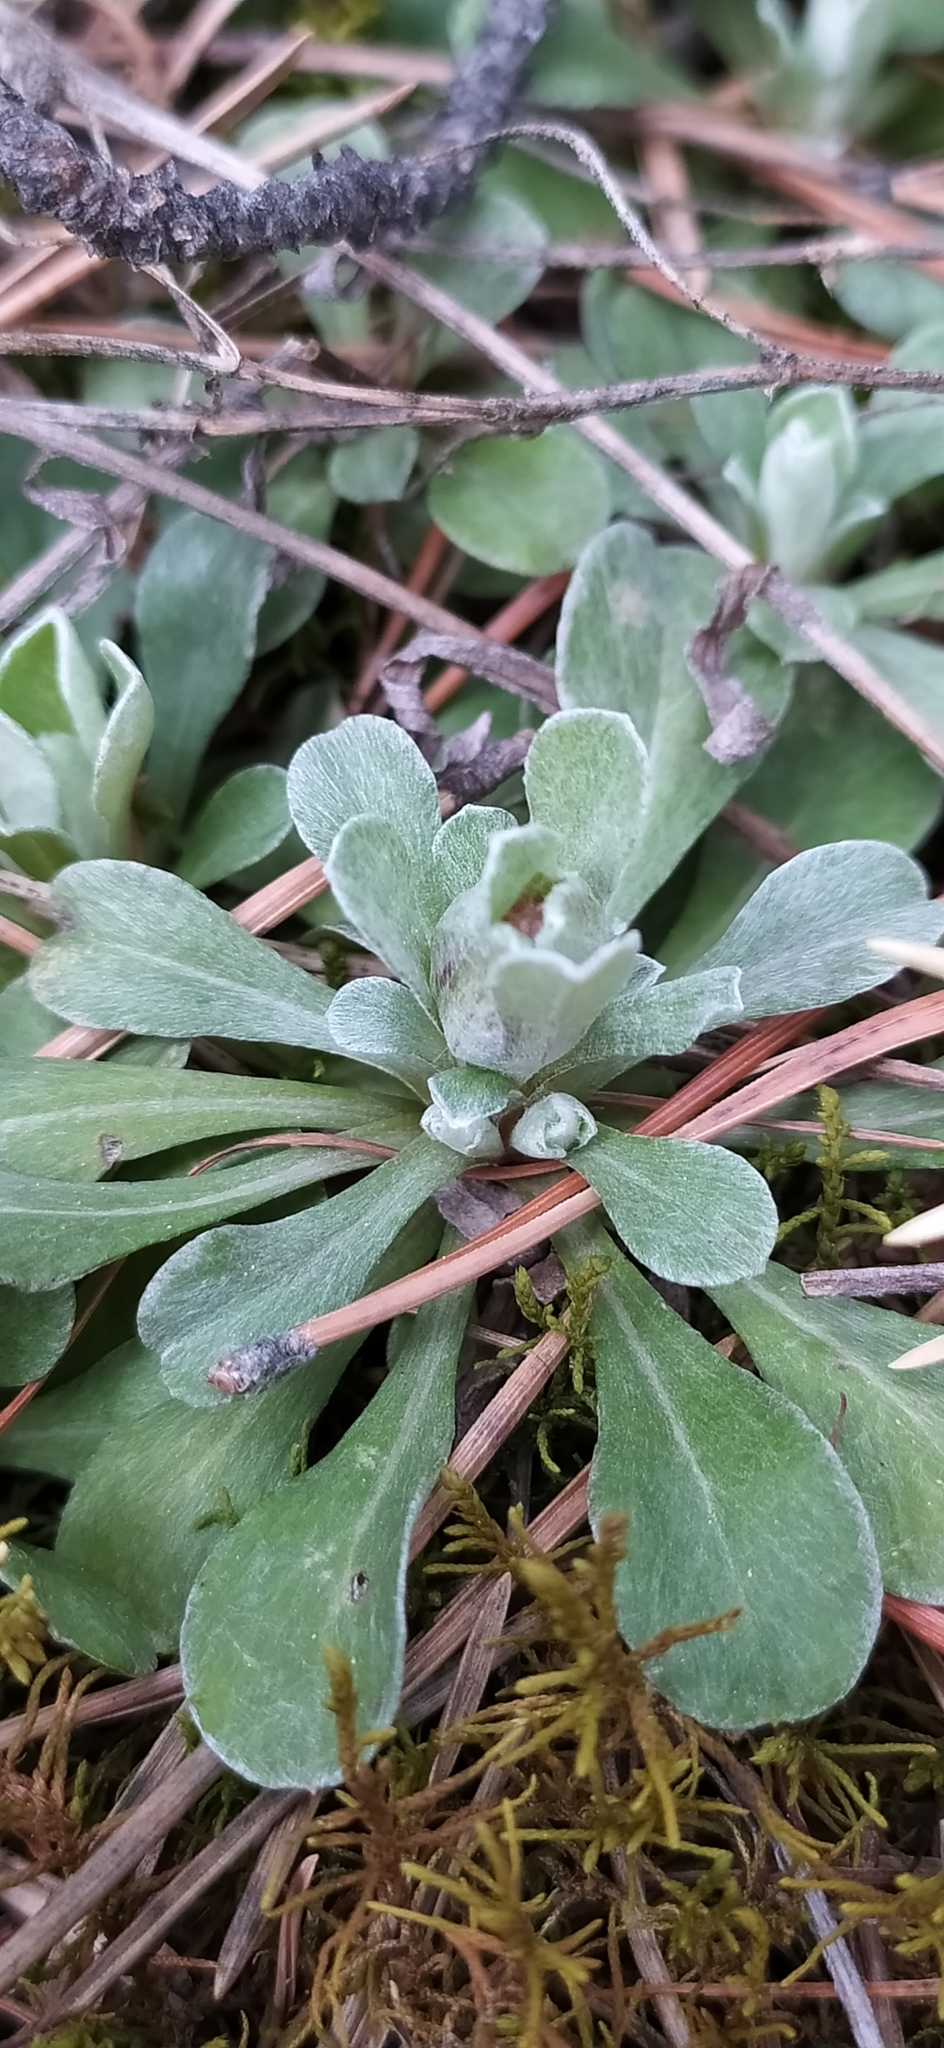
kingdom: Plantae
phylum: Tracheophyta
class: Magnoliopsida
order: Asterales
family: Asteraceae
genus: Antennaria
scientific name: Antennaria dioica
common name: Mountain everlasting
